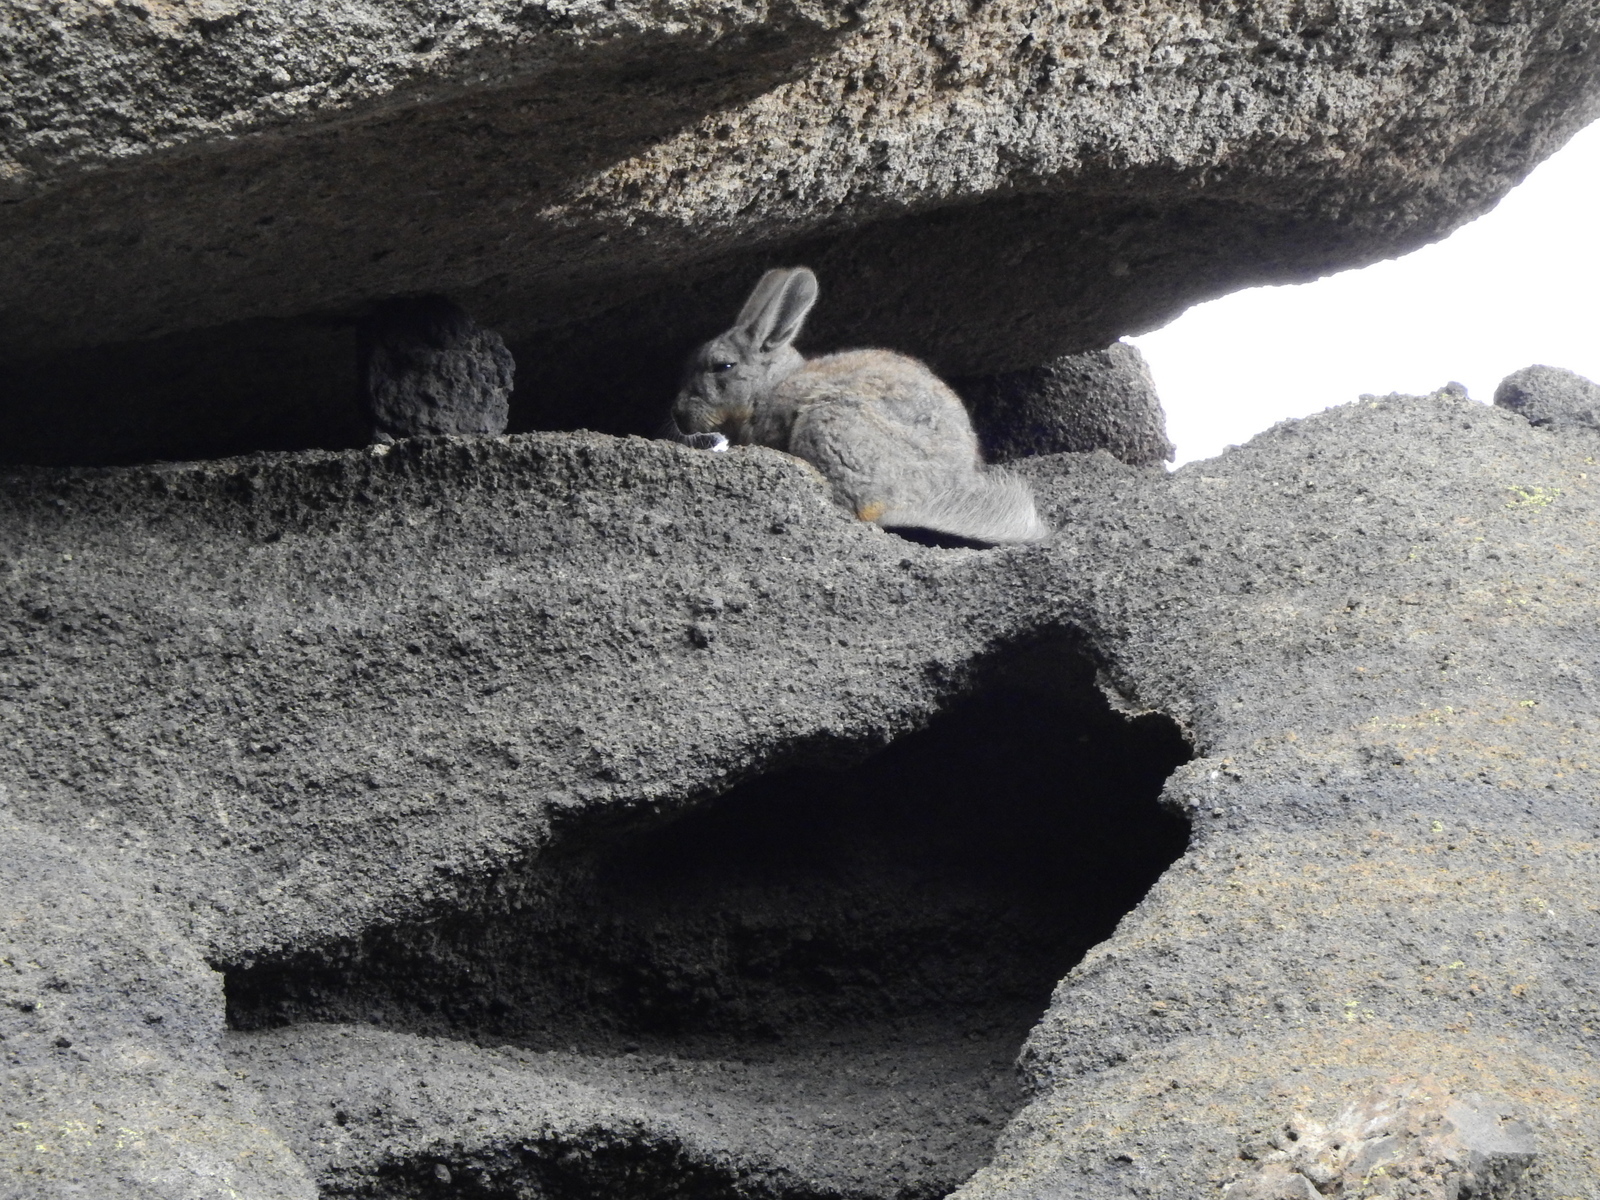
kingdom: Animalia
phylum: Chordata
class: Mammalia
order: Rodentia
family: Chinchillidae
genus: Lagidium
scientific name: Lagidium viscacia
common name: Southern viscacha
